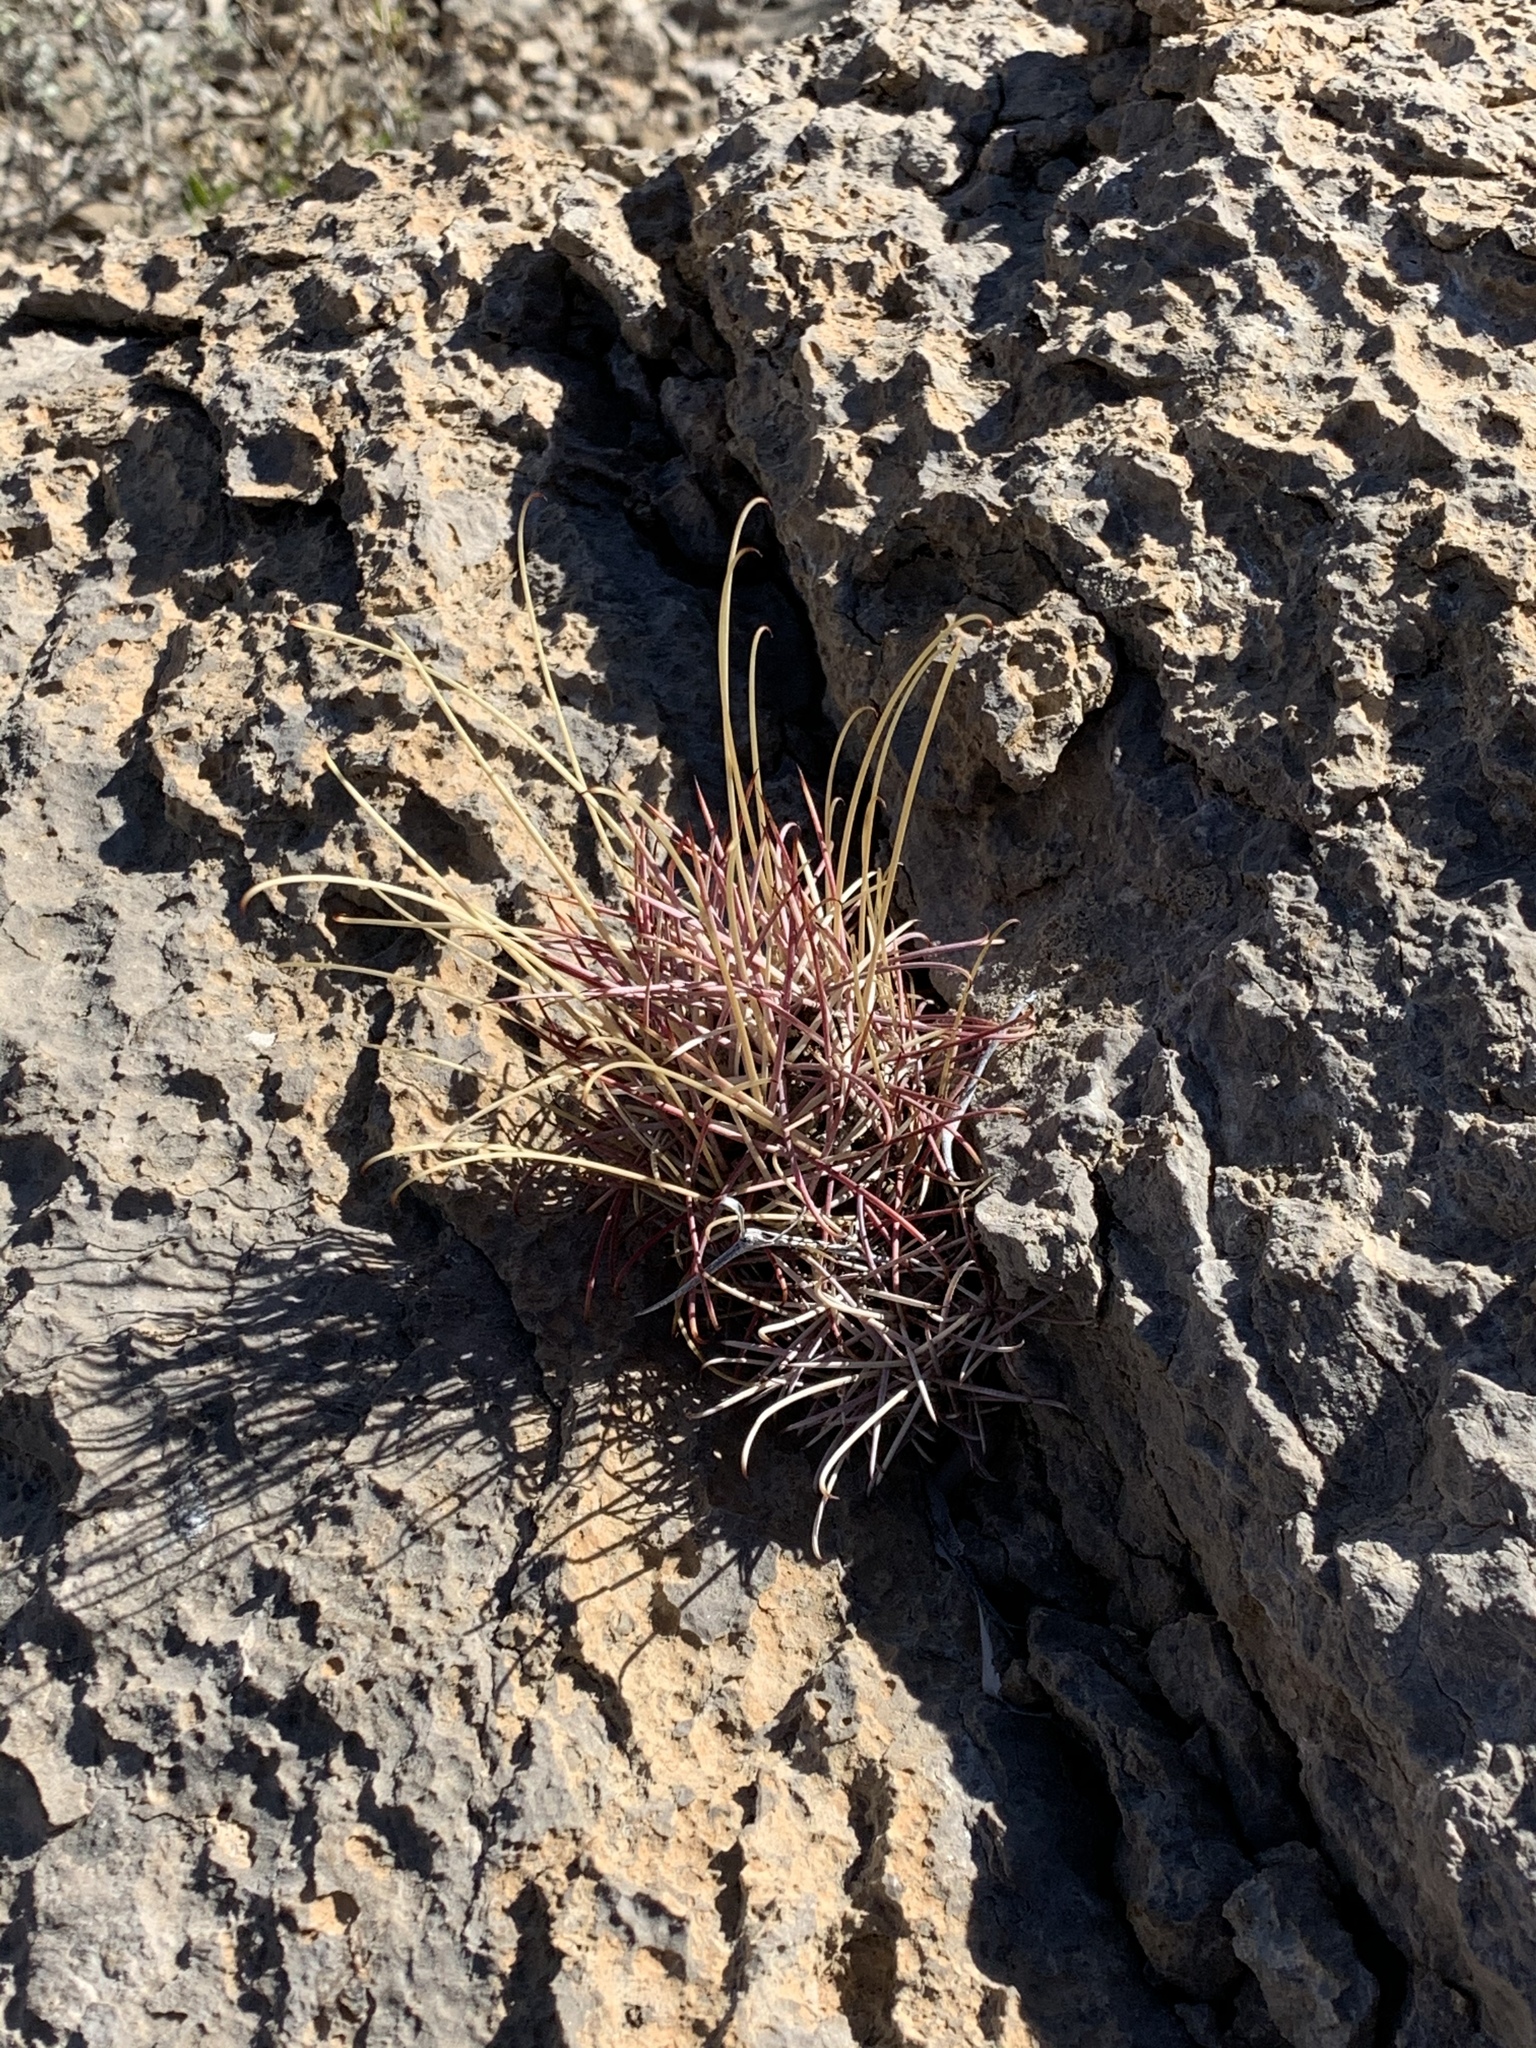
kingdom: Plantae
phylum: Tracheophyta
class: Magnoliopsida
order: Caryophyllales
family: Cactaceae
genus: Ferocactus
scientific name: Ferocactus uncinatus
